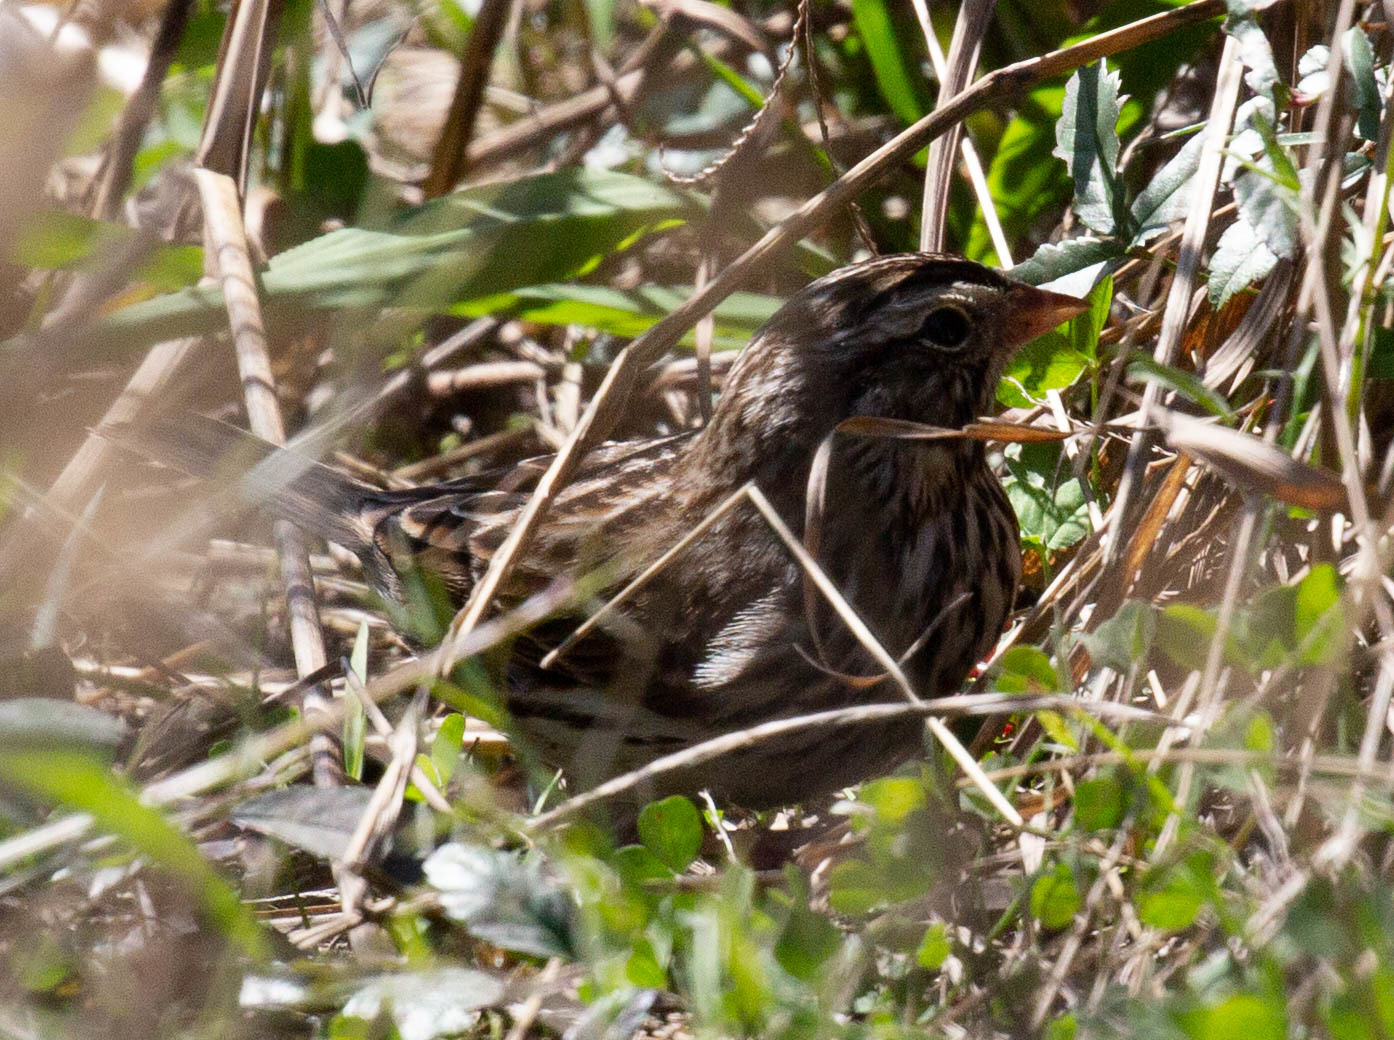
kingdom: Animalia
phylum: Chordata
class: Aves
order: Passeriformes
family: Passerellidae
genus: Passerculus
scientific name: Passerculus sandwichensis
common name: Savannah sparrow
